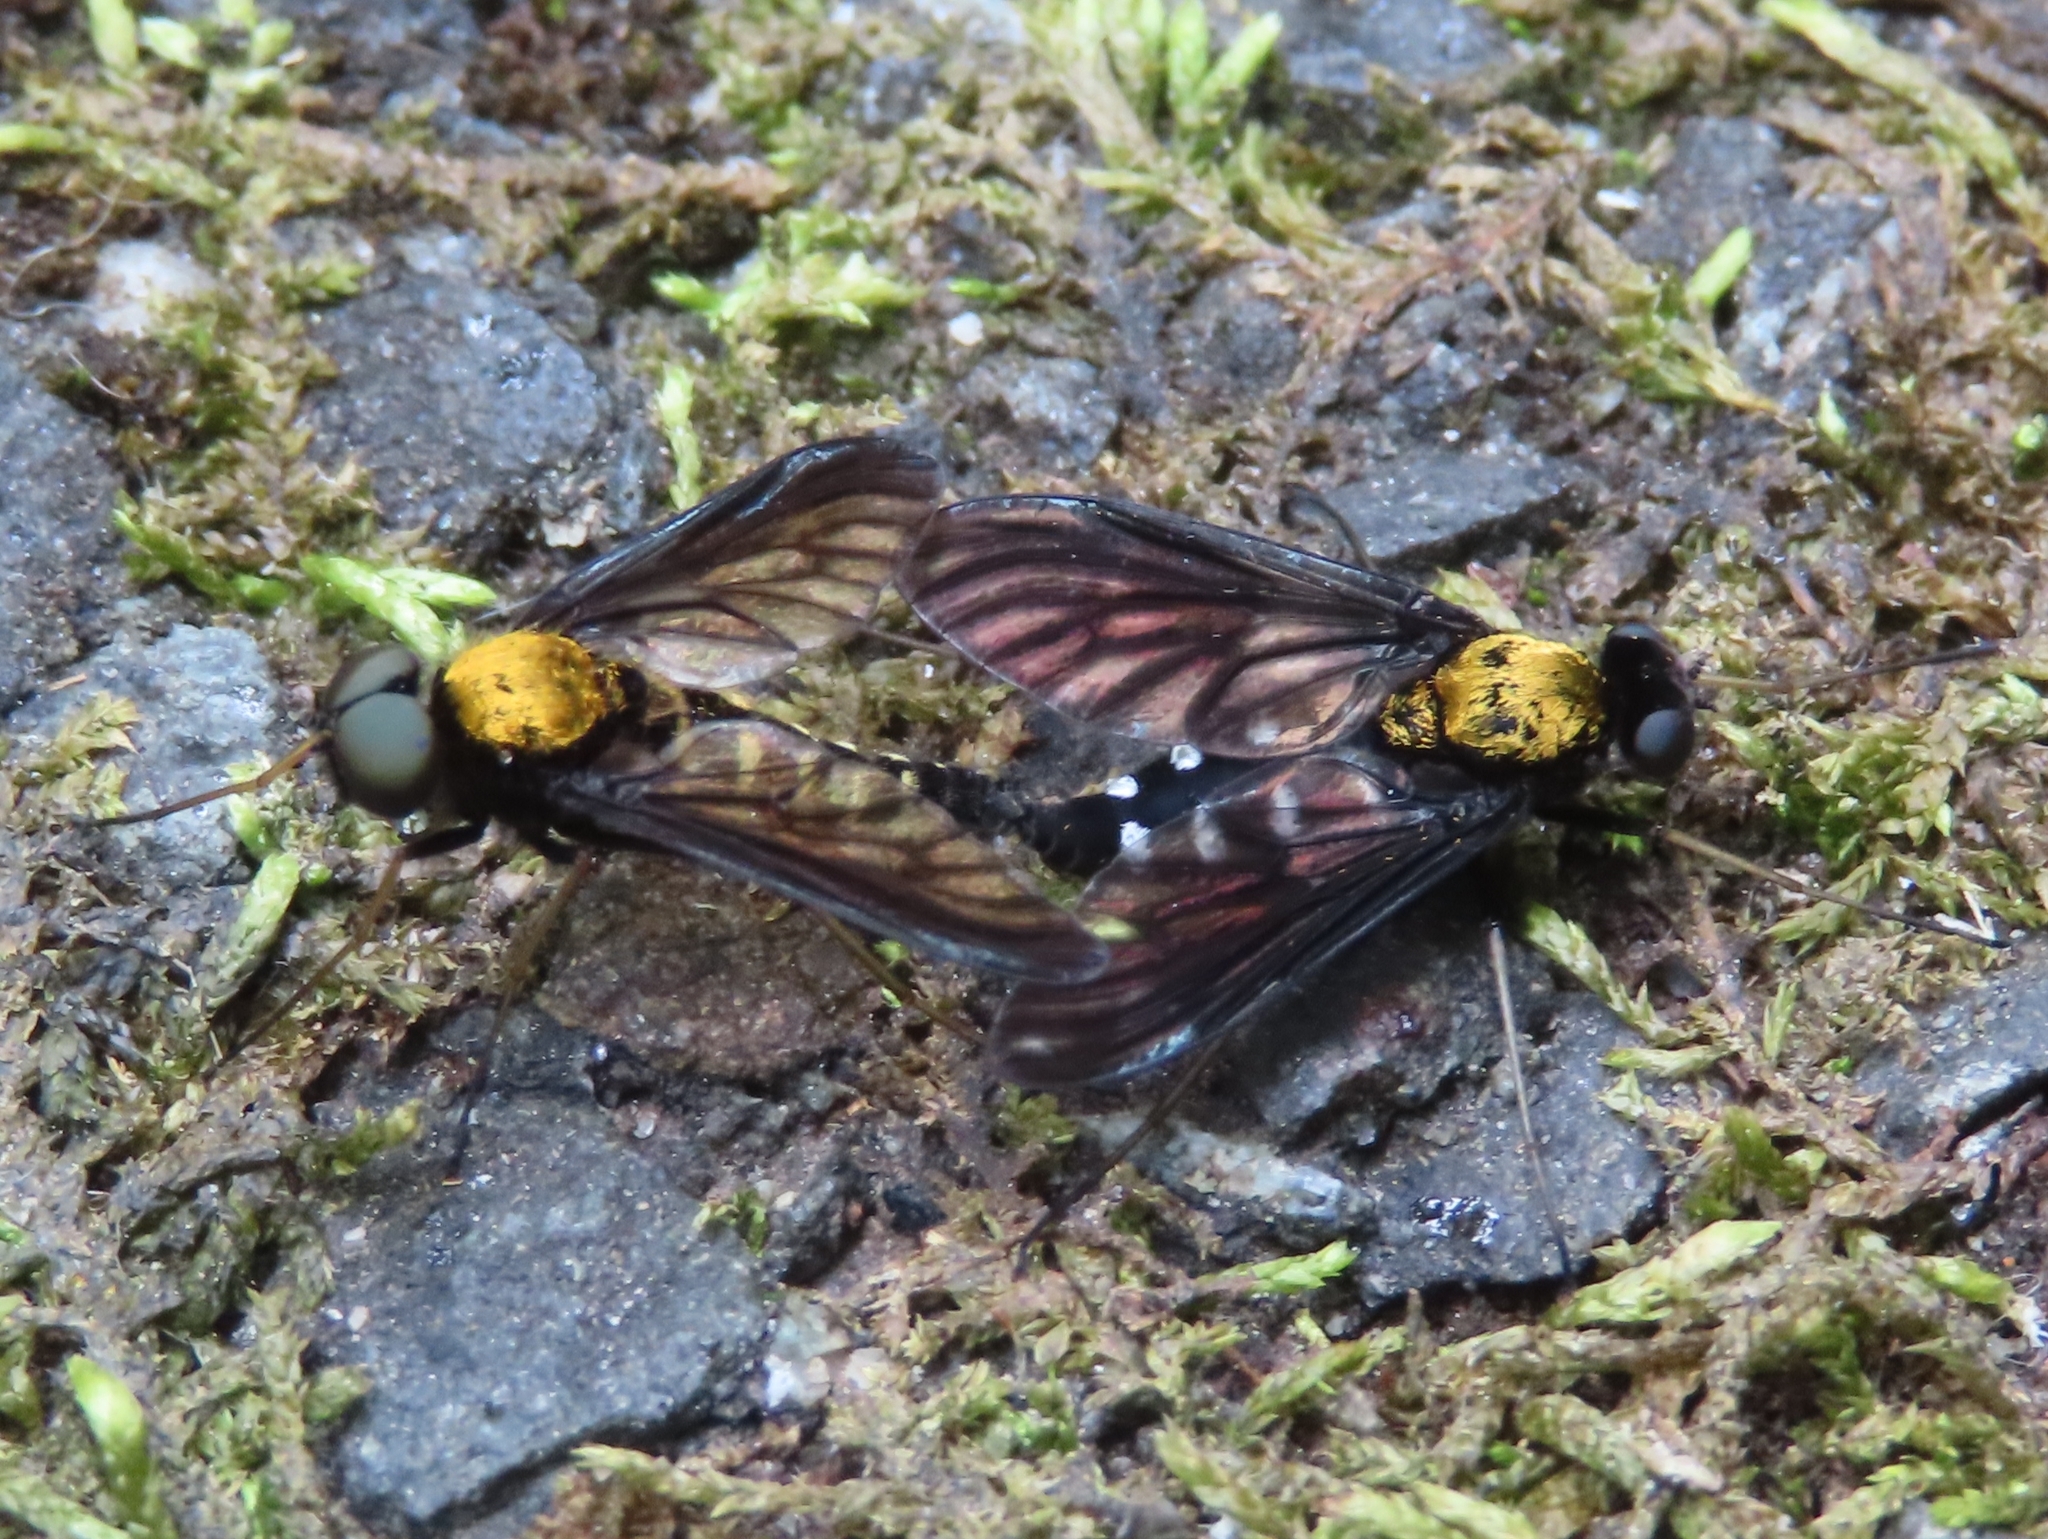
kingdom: Animalia
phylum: Arthropoda
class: Insecta
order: Diptera
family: Rhagionidae
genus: Chrysopilus
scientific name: Chrysopilus thoracicus
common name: Golden-backed snipe fly
